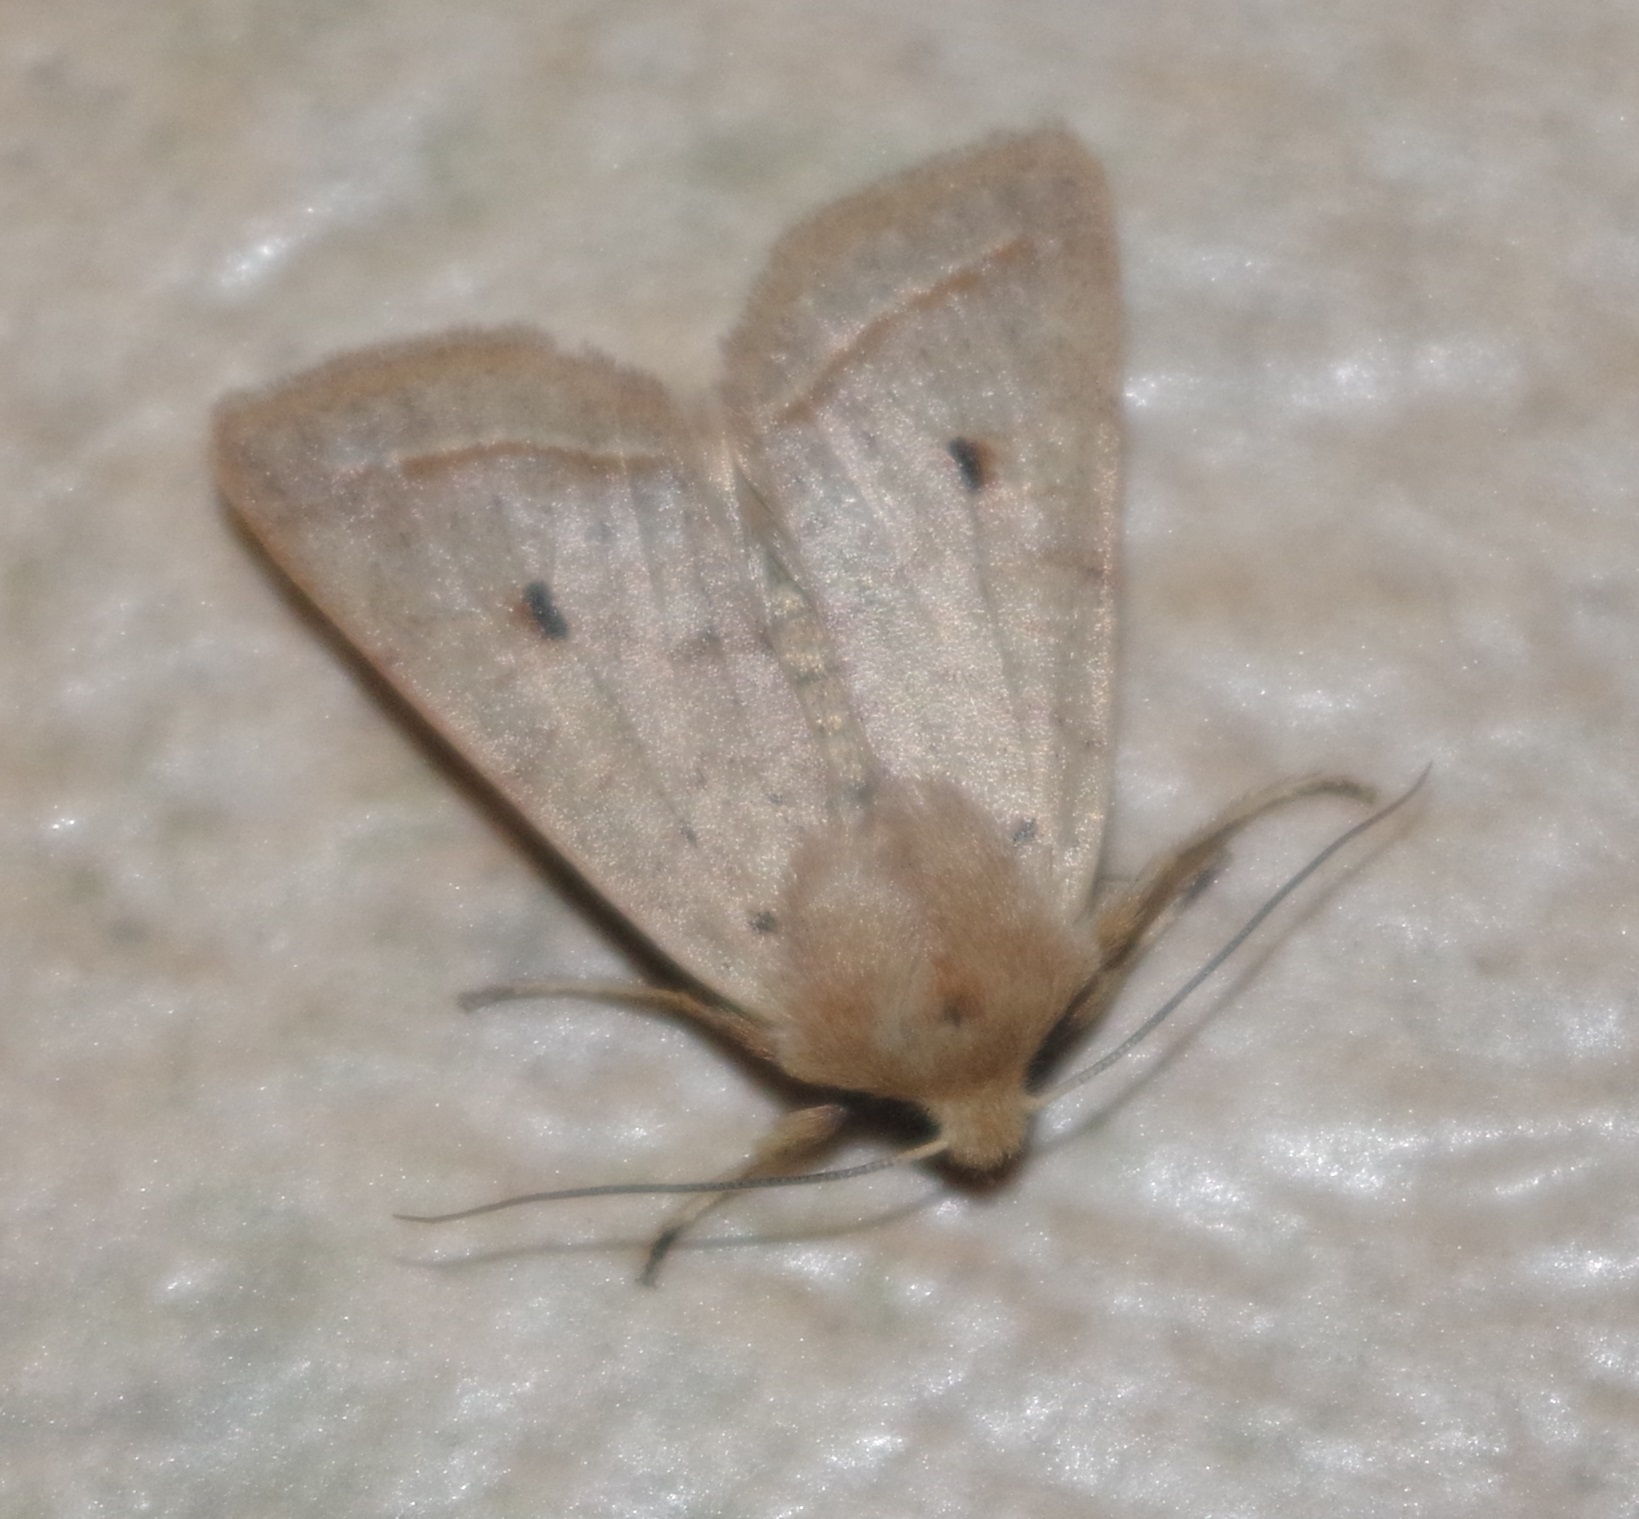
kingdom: Animalia
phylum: Arthropoda
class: Insecta
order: Lepidoptera
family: Noctuidae
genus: Agrochola
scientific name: Agrochola macilenta
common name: Yellow-line quaker
